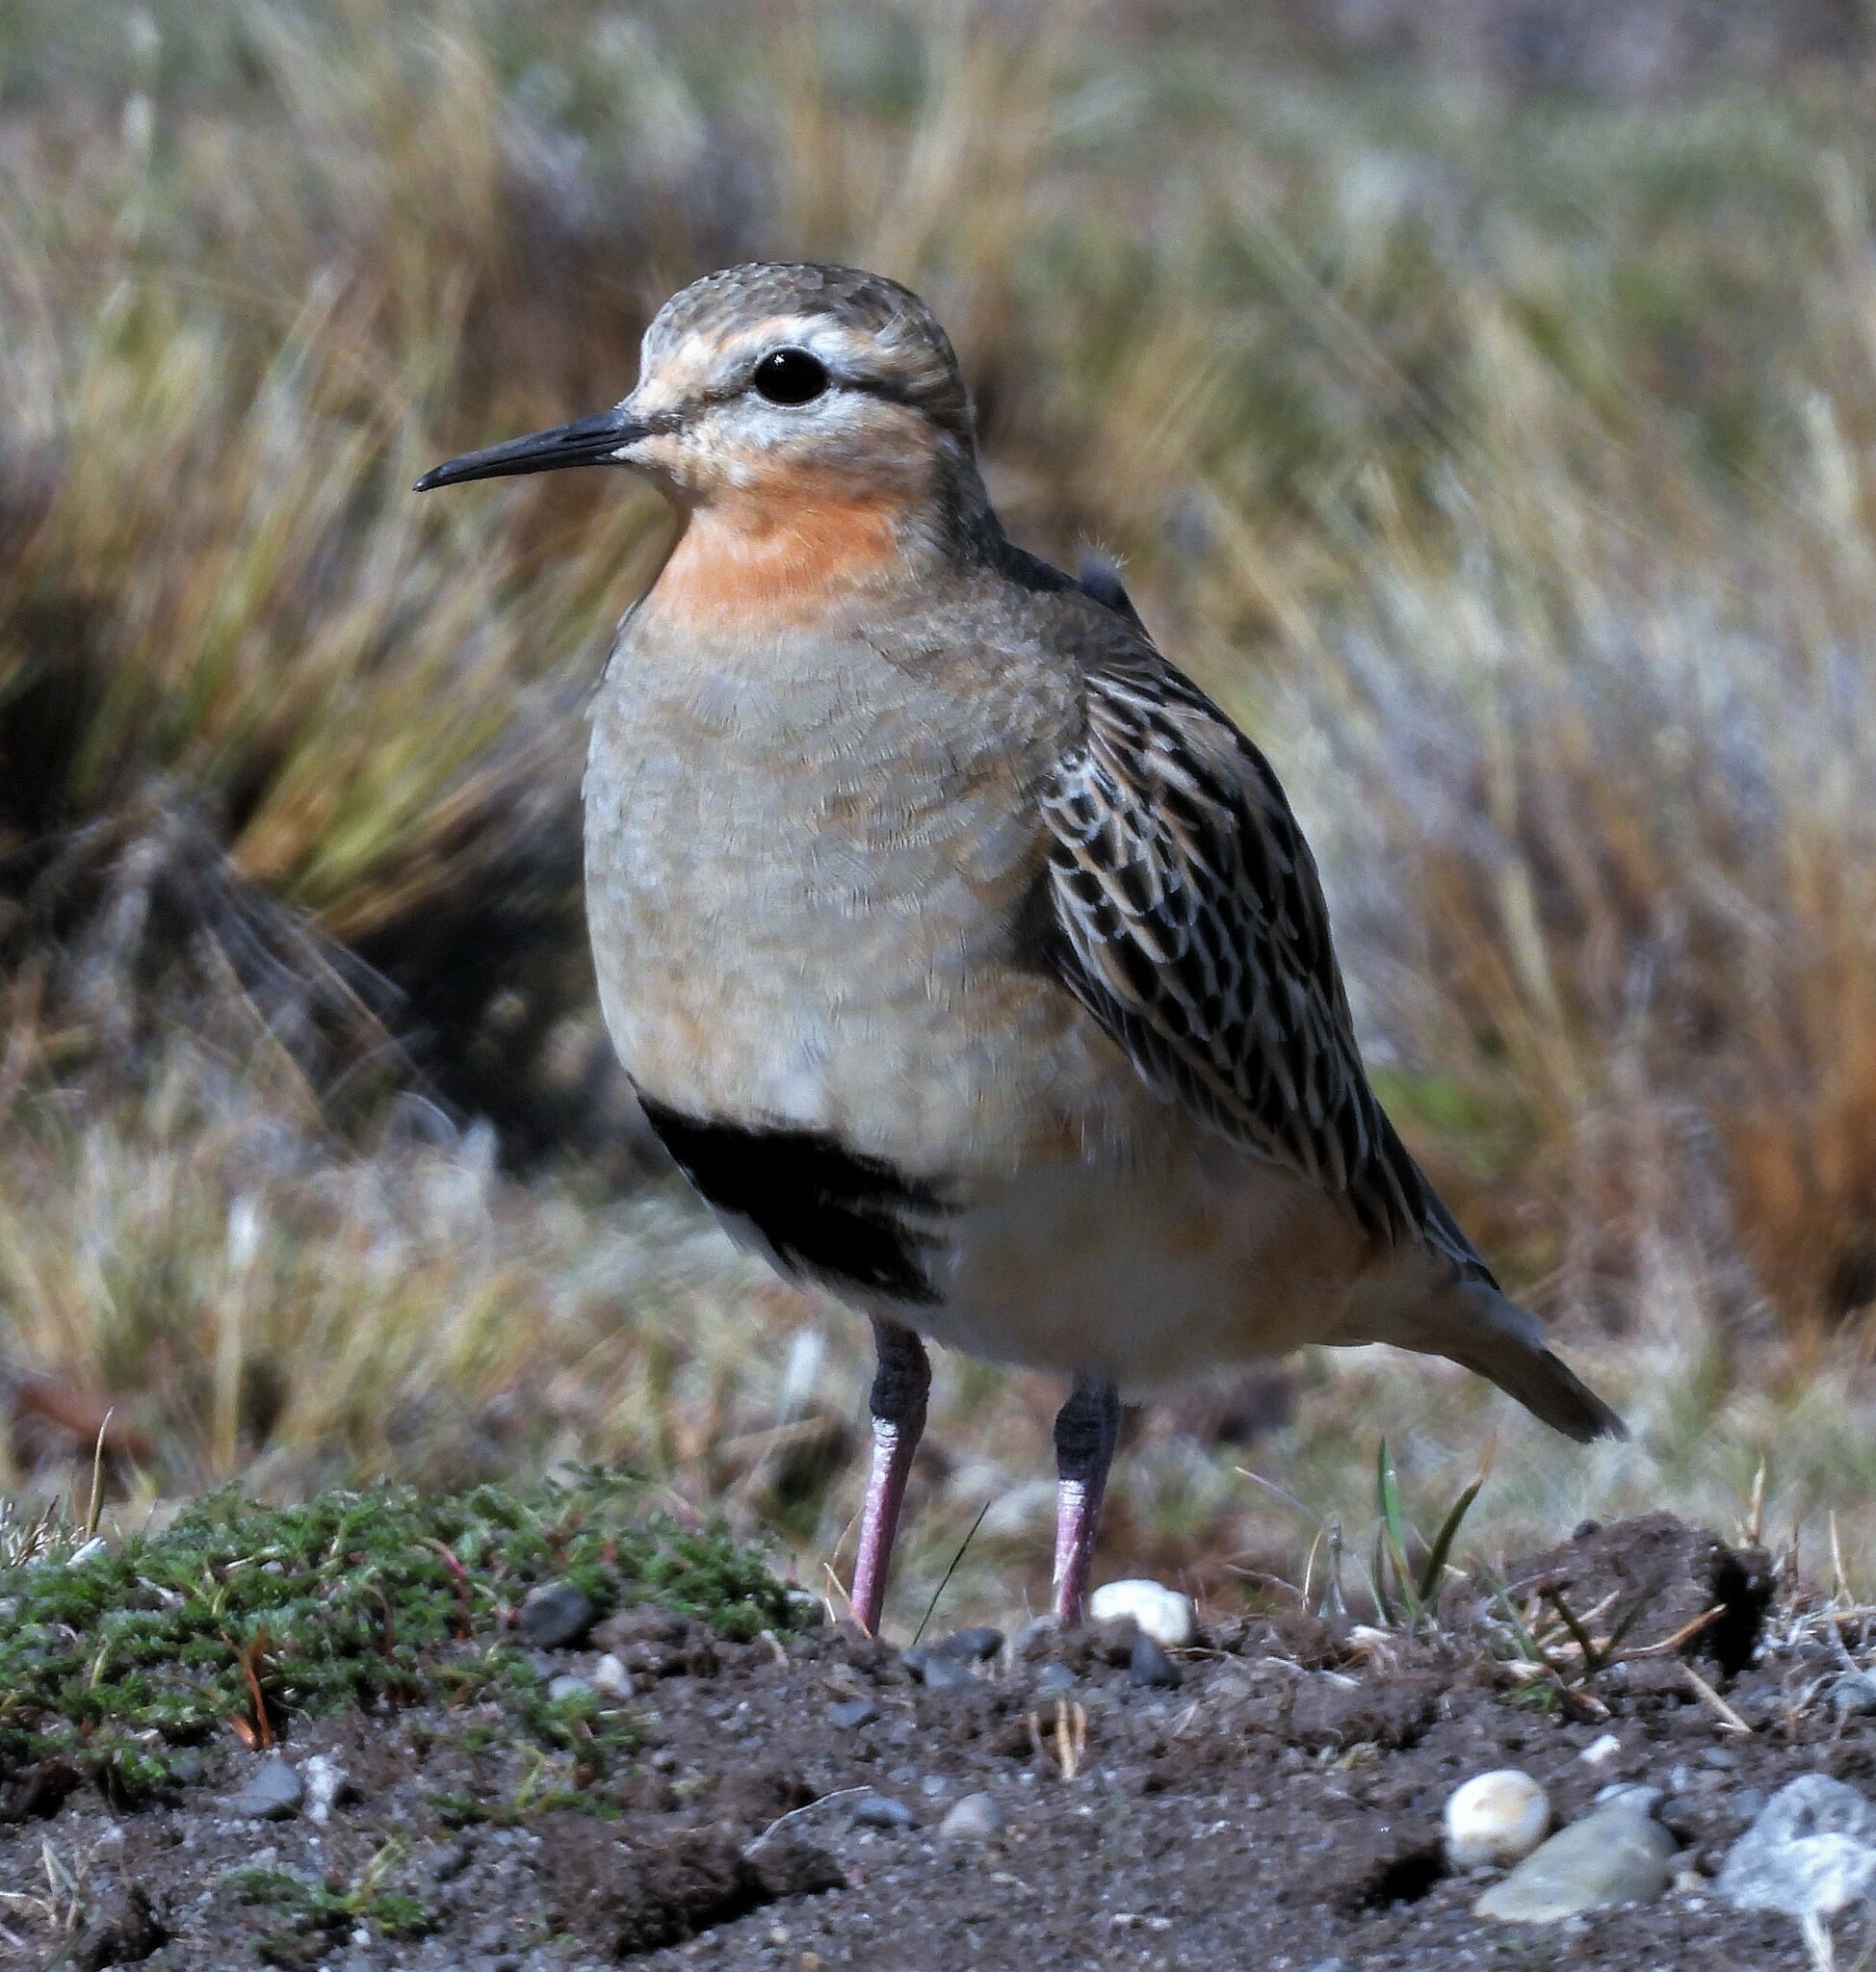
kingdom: Animalia
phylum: Chordata
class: Aves
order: Charadriiformes
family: Charadriidae
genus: Oreopholus
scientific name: Oreopholus ruficollis
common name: Tawny-throated dotterel
